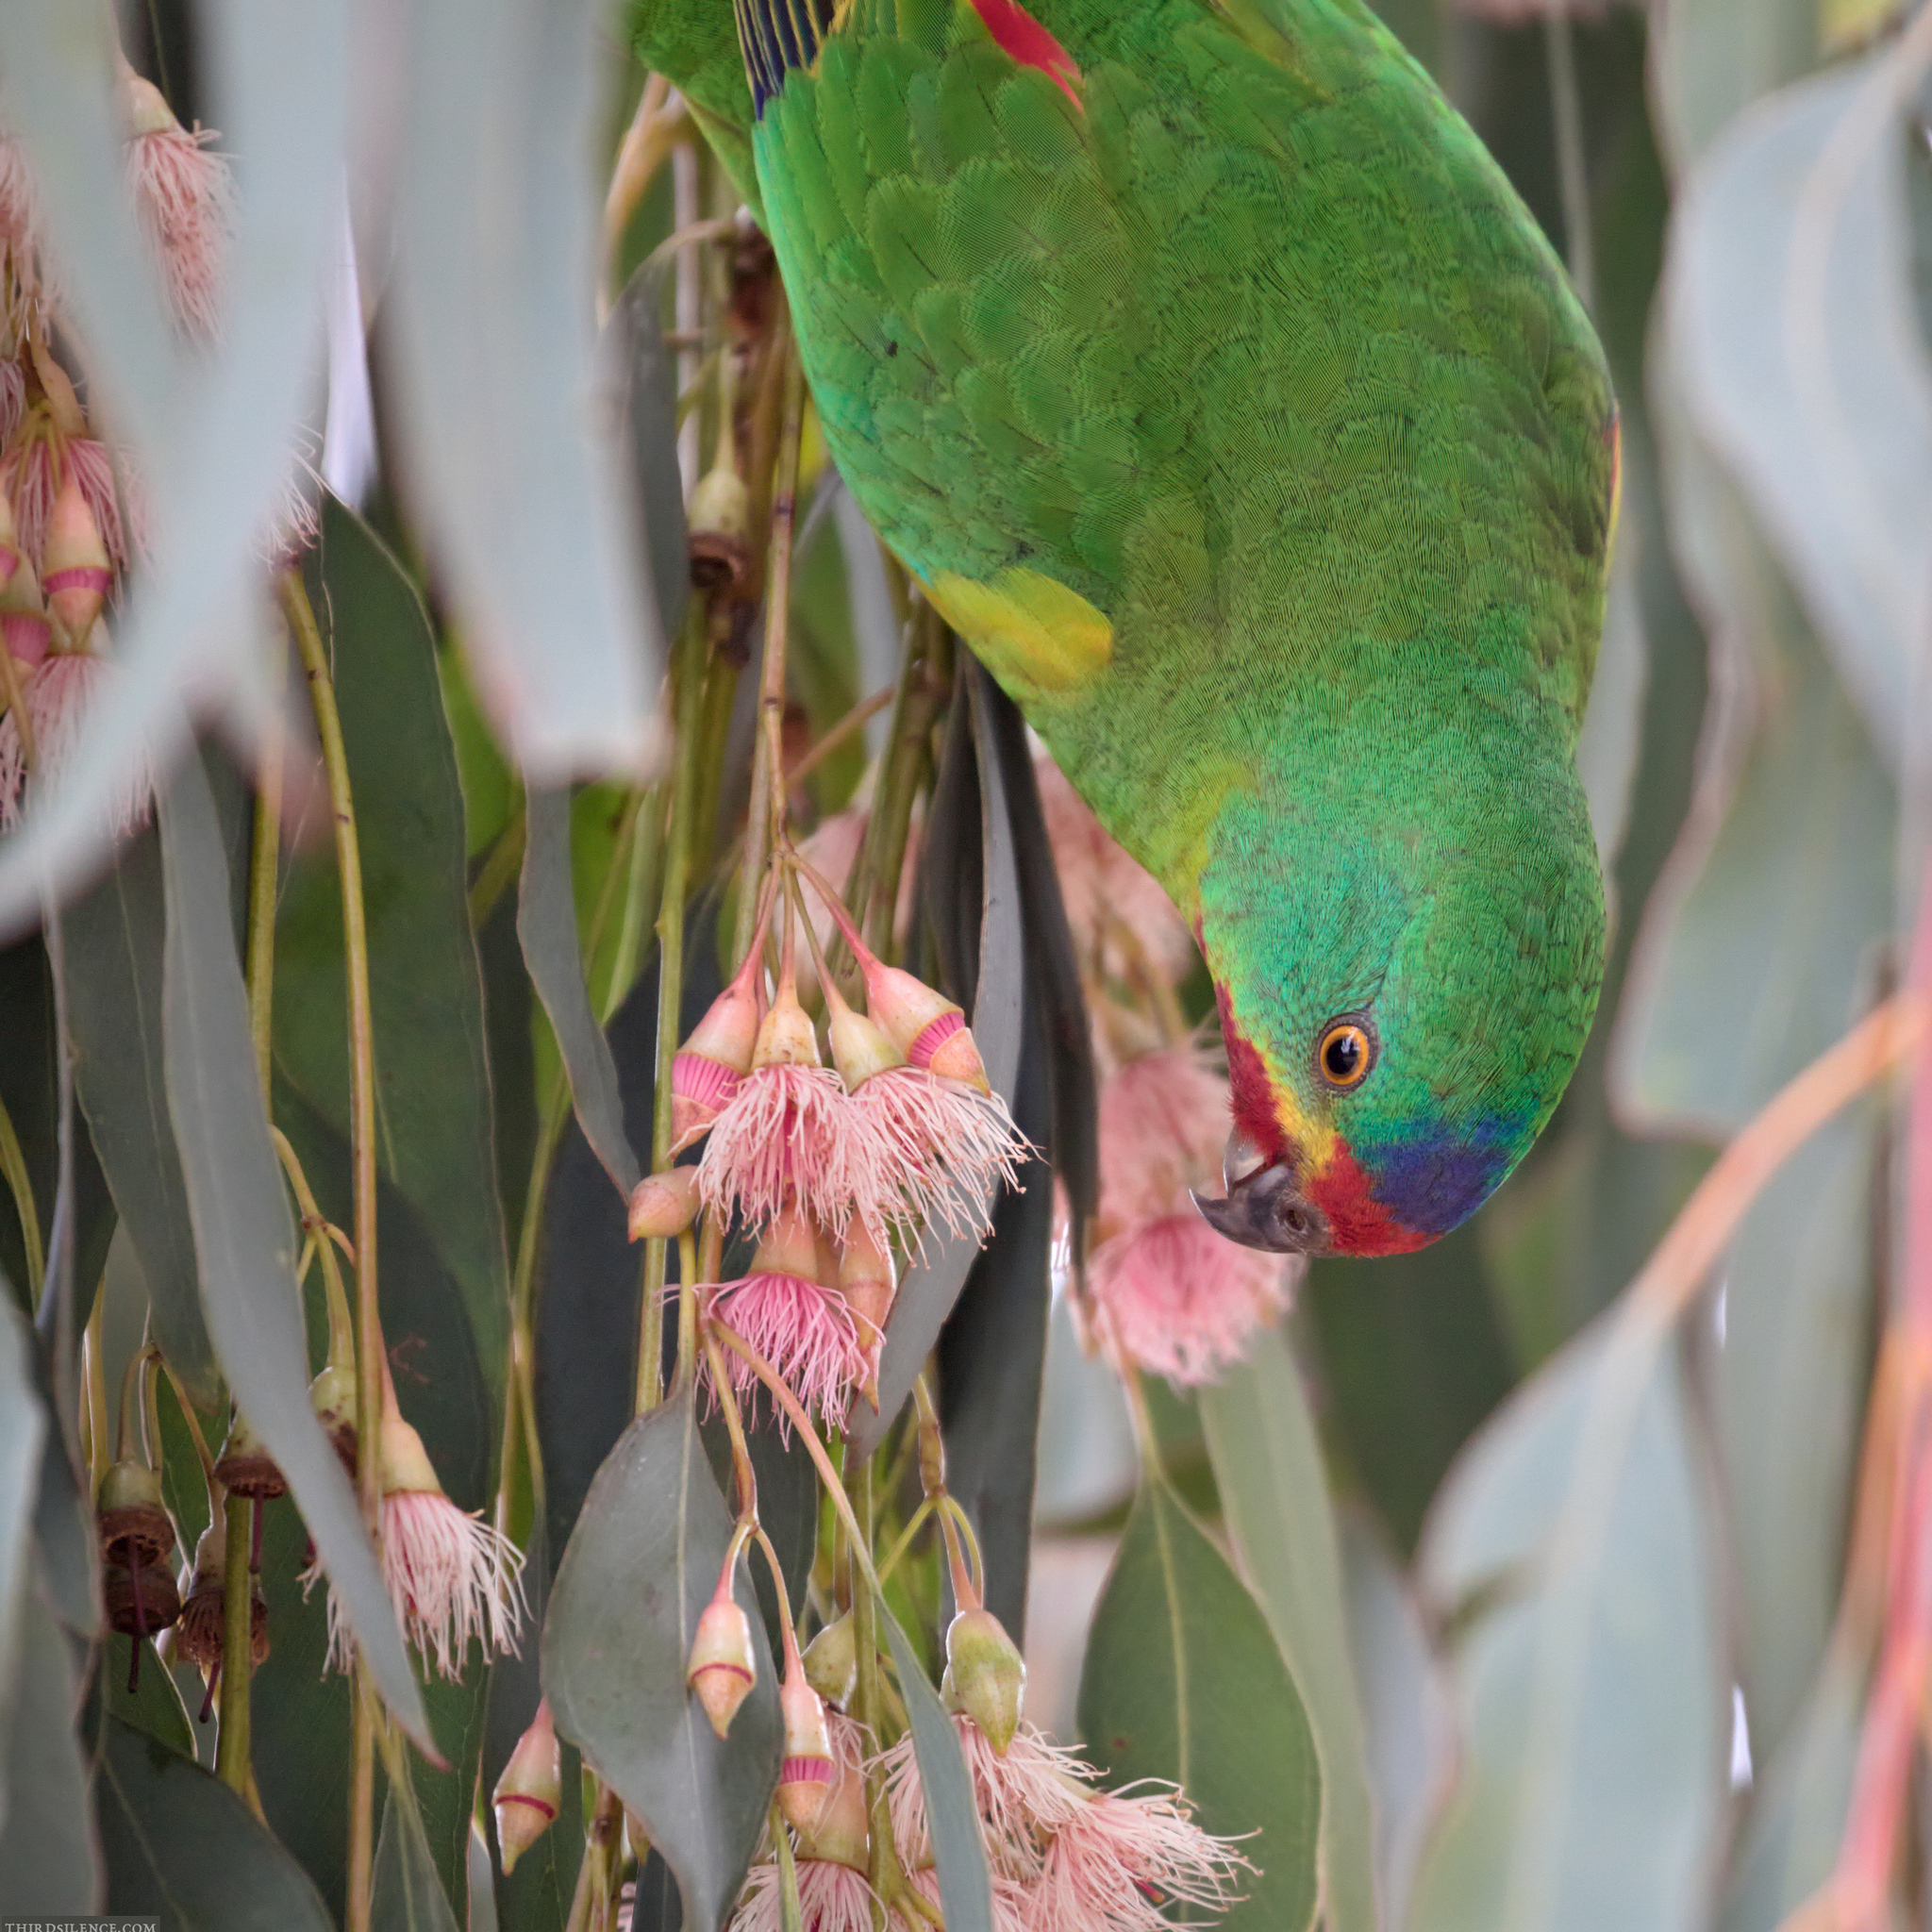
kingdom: Animalia
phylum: Chordata
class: Aves
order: Psittaciformes
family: Psittacidae
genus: Lathamus
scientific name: Lathamus discolor
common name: Swift parrot
